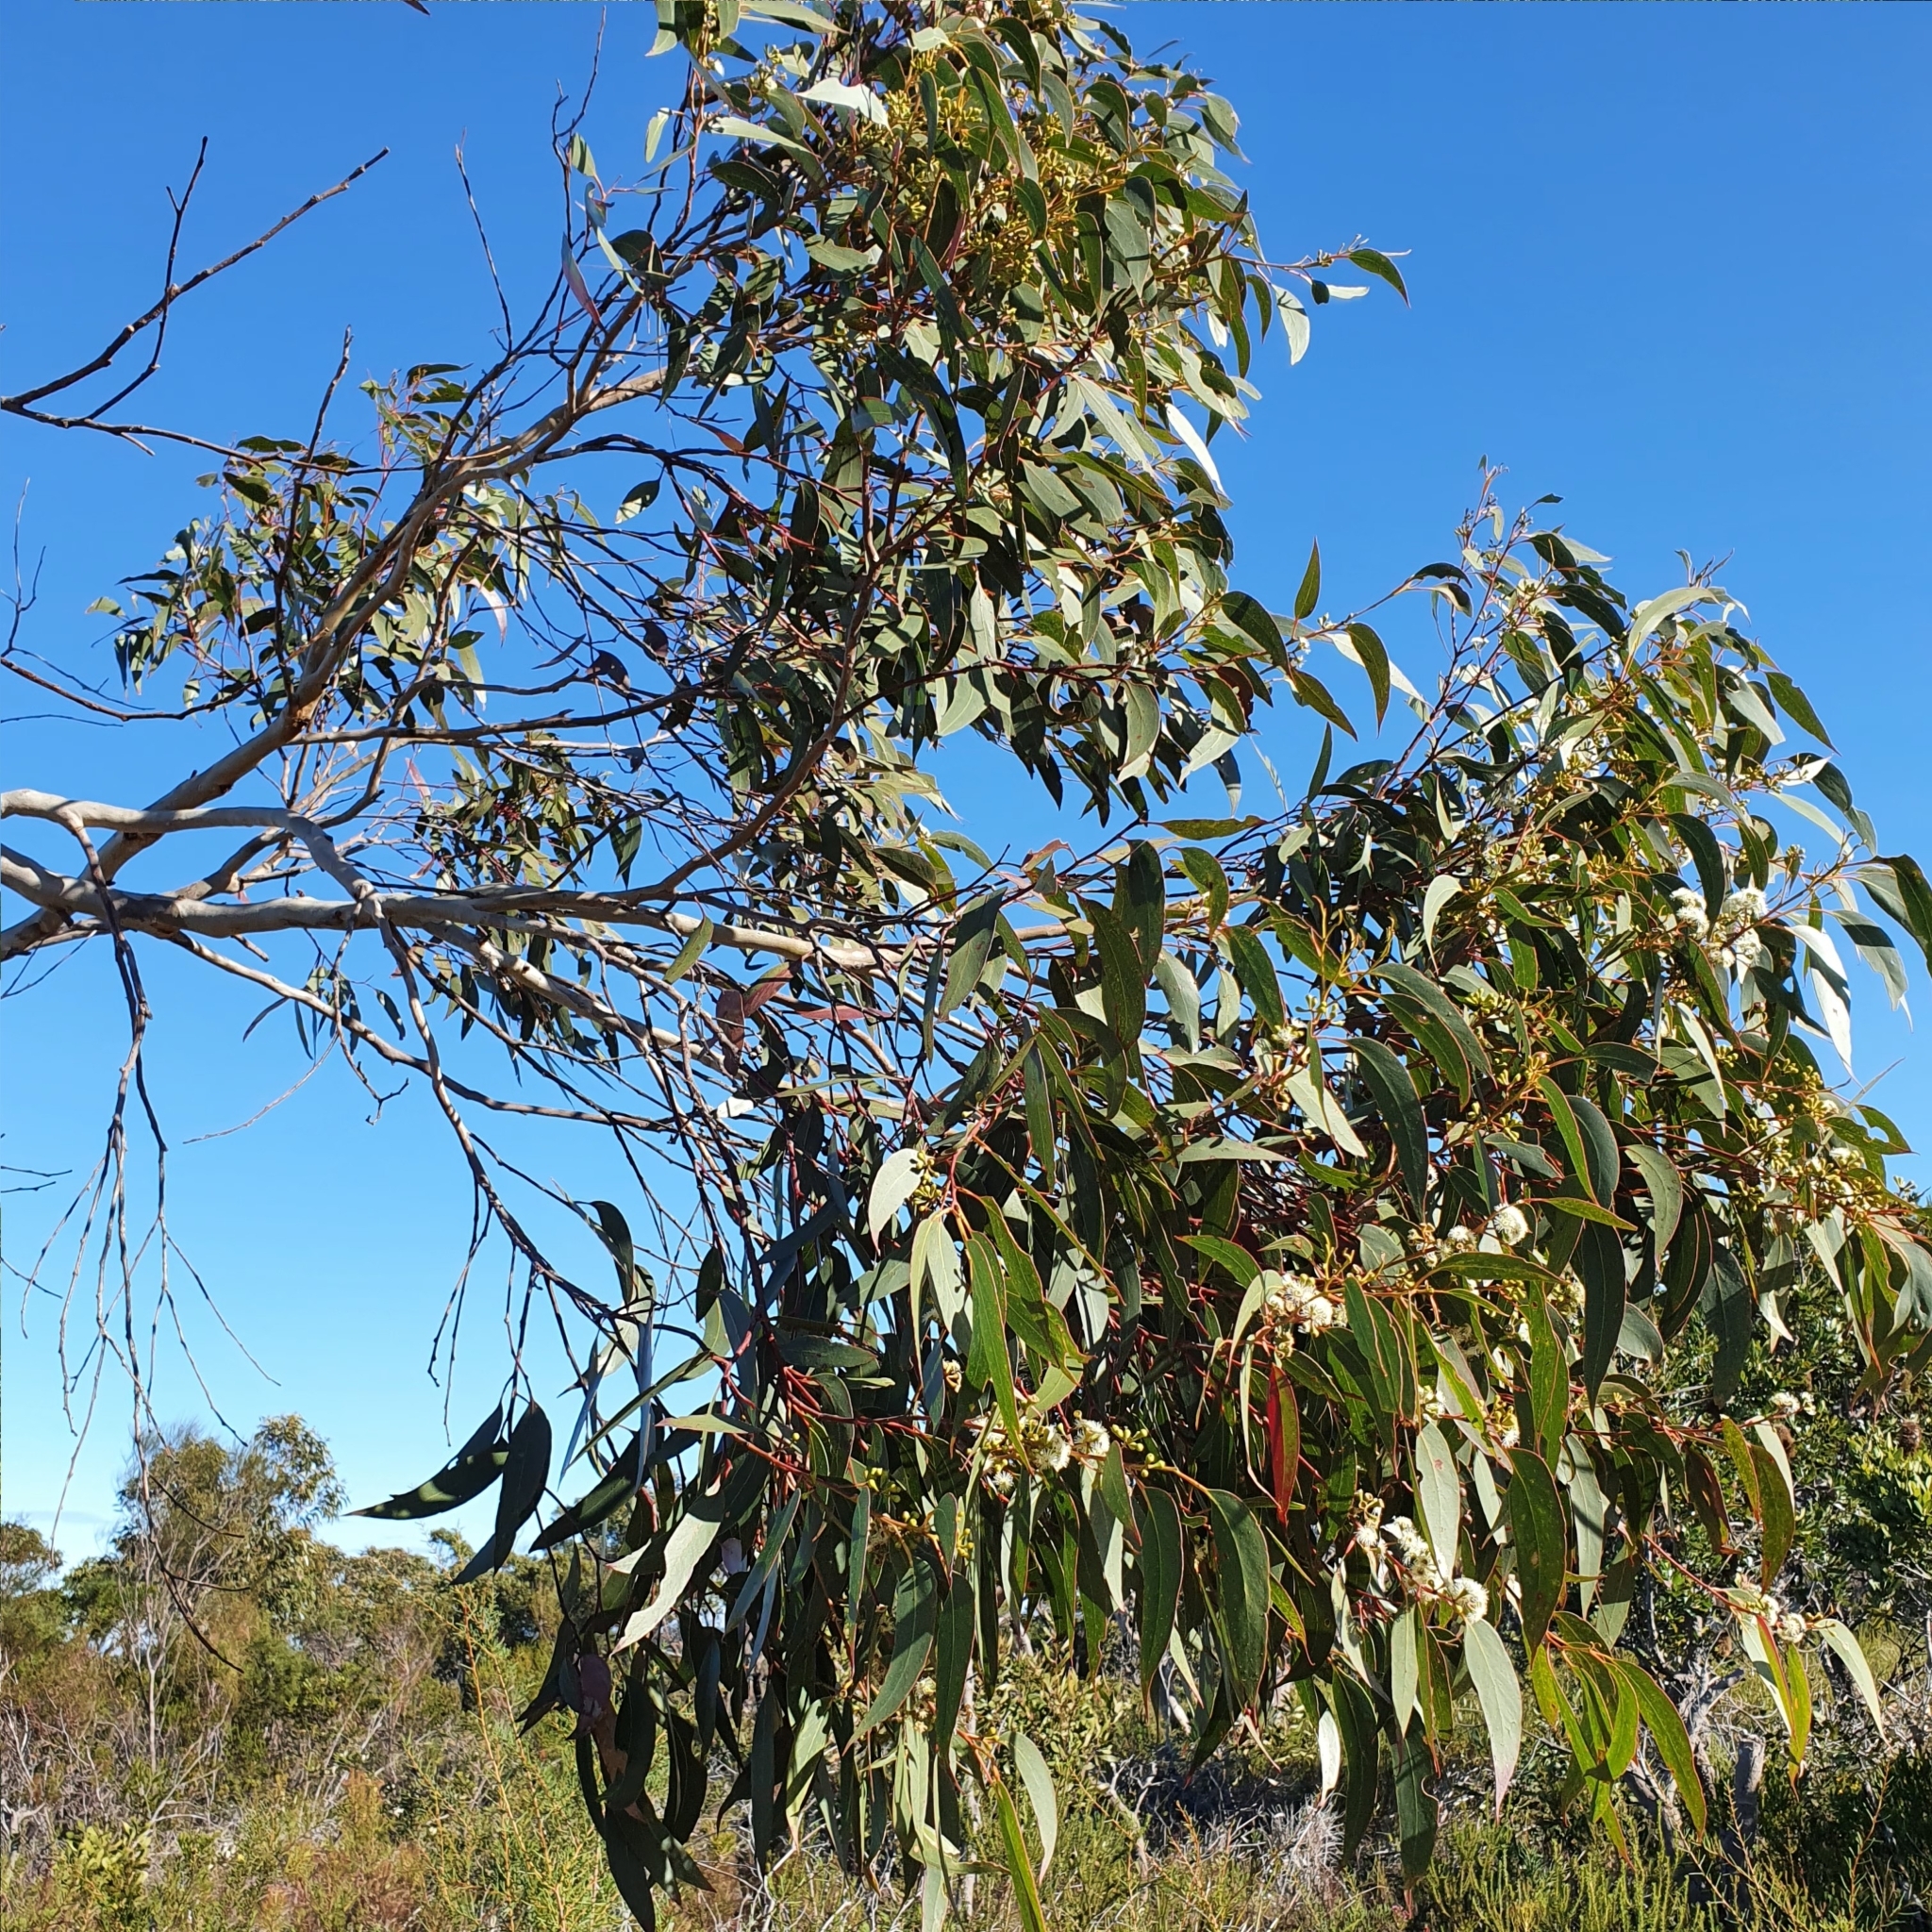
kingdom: Plantae
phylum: Tracheophyta
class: Magnoliopsida
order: Myrtales
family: Myrtaceae
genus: Eucalyptus
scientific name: Eucalyptus haemastoma
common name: Scribbly-gum
